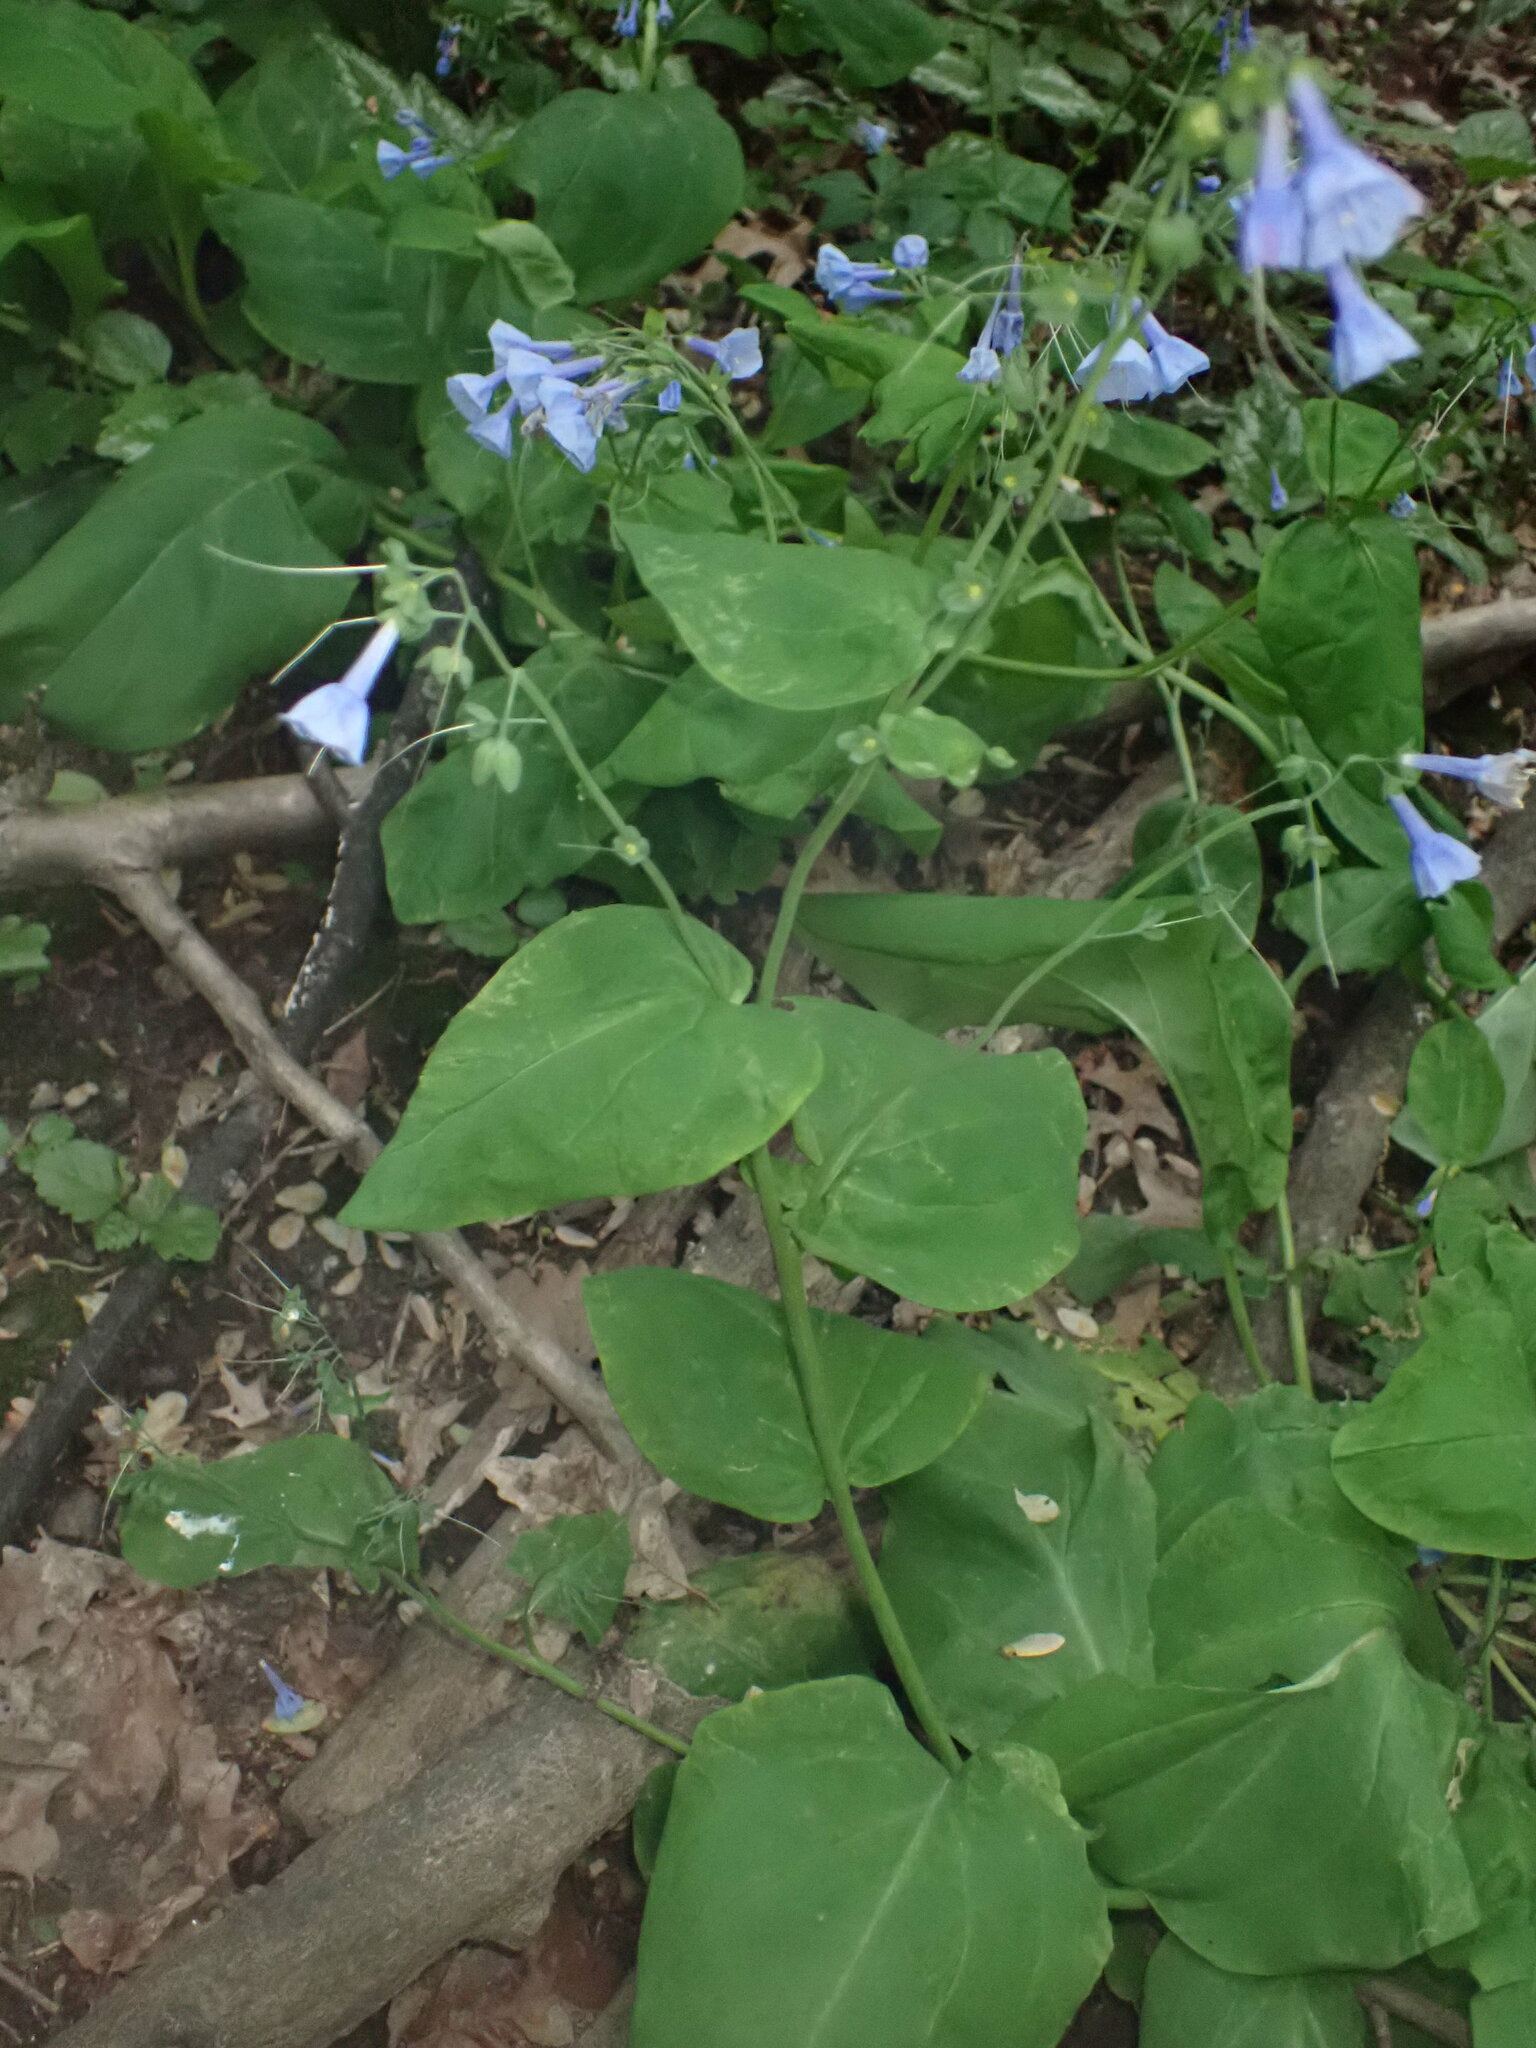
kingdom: Plantae
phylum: Tracheophyta
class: Magnoliopsida
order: Boraginales
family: Boraginaceae
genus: Mertensia
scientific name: Mertensia virginica
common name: Virginia bluebells
